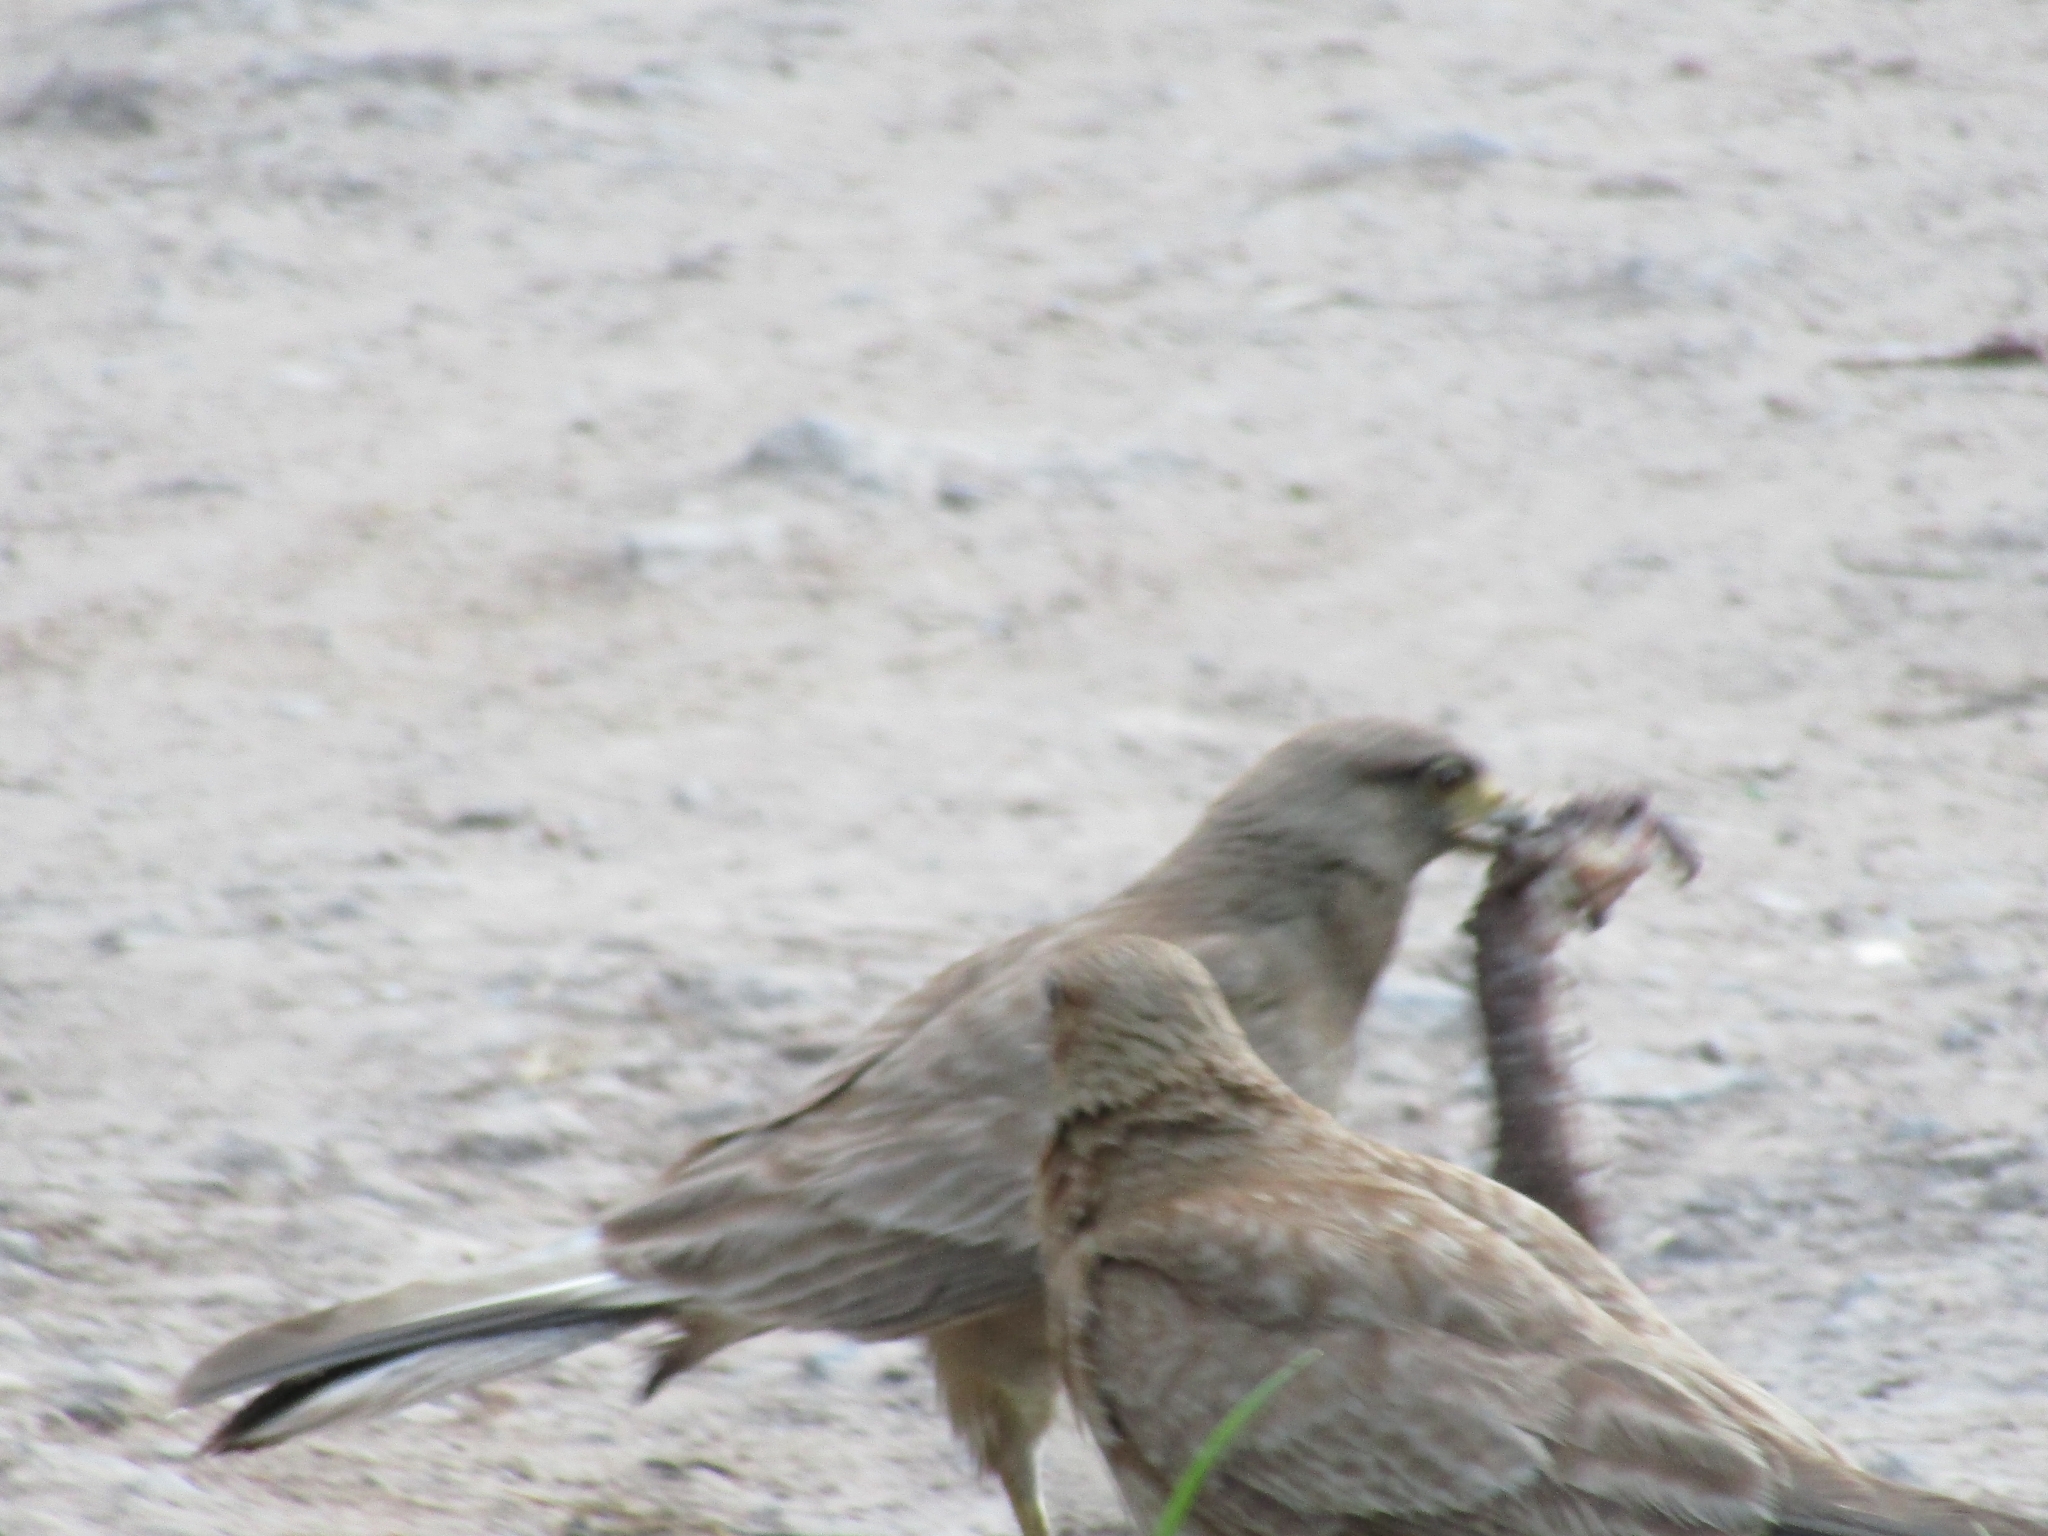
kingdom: Animalia
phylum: Chordata
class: Aves
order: Falconiformes
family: Falconidae
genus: Daptrius
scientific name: Daptrius
